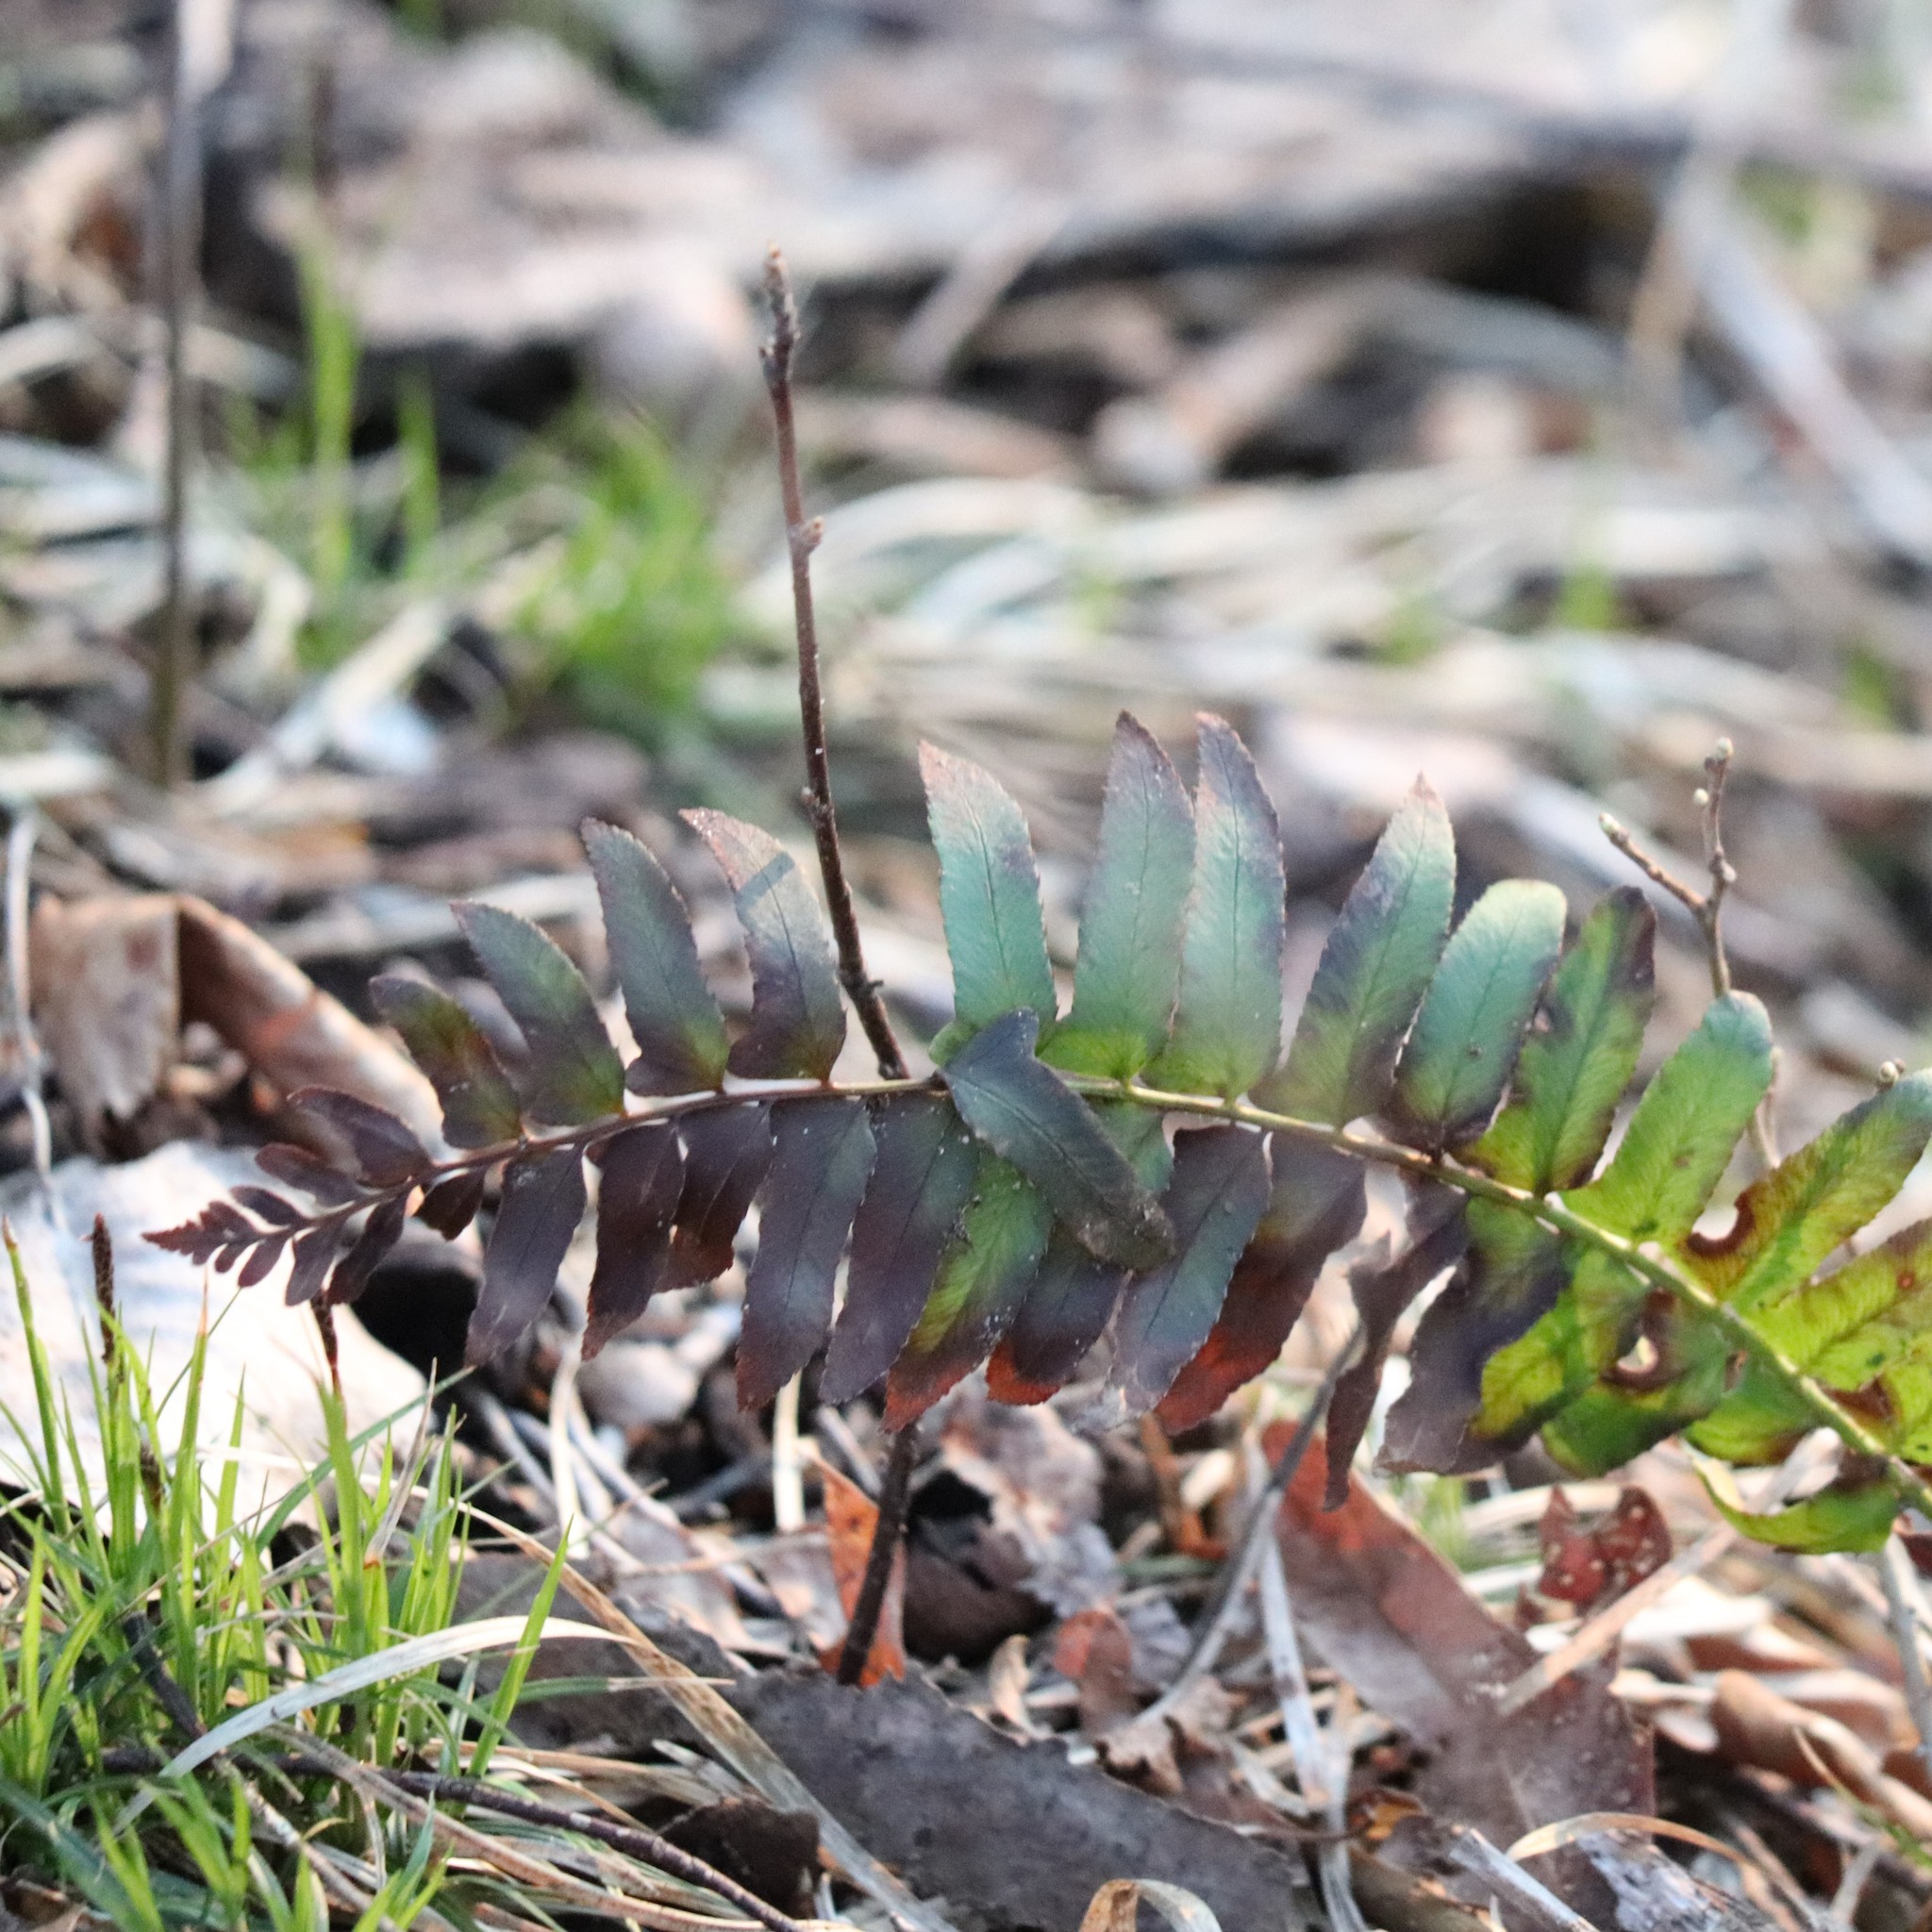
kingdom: Plantae
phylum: Tracheophyta
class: Polypodiopsida
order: Polypodiales
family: Dryopteridaceae
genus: Polystichum
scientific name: Polystichum acrostichoides
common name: Christmas fern
